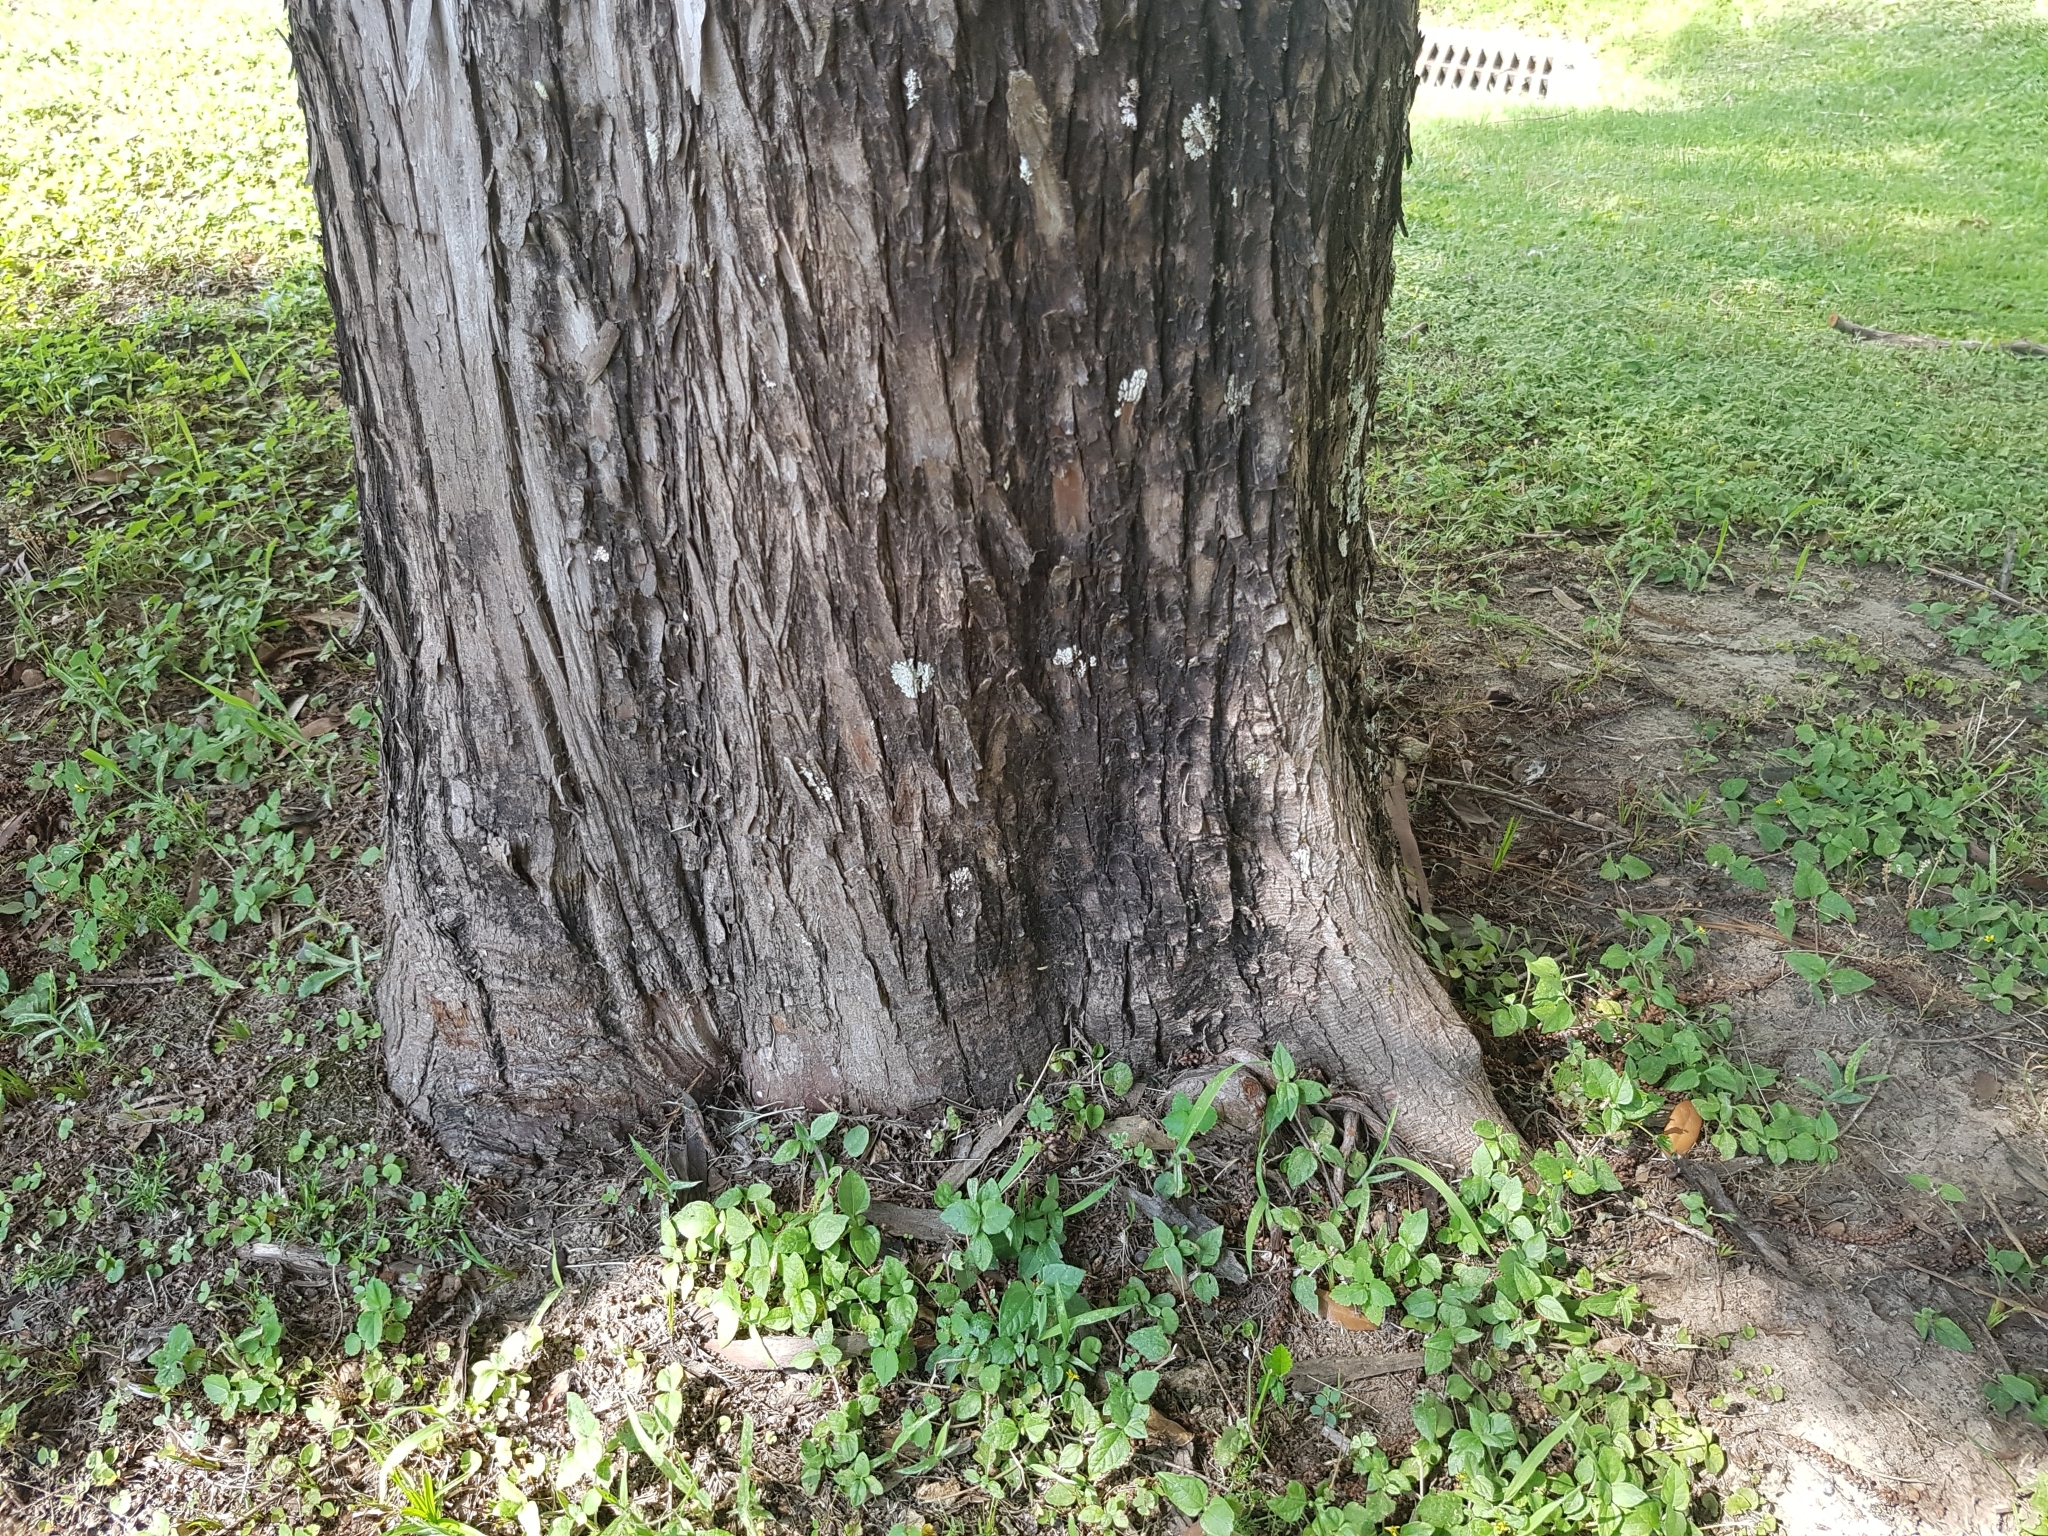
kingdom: Plantae
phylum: Tracheophyta
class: Pinopsida
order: Pinales
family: Cupressaceae
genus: Taxodium
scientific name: Taxodium distichum
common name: Bald cypress
